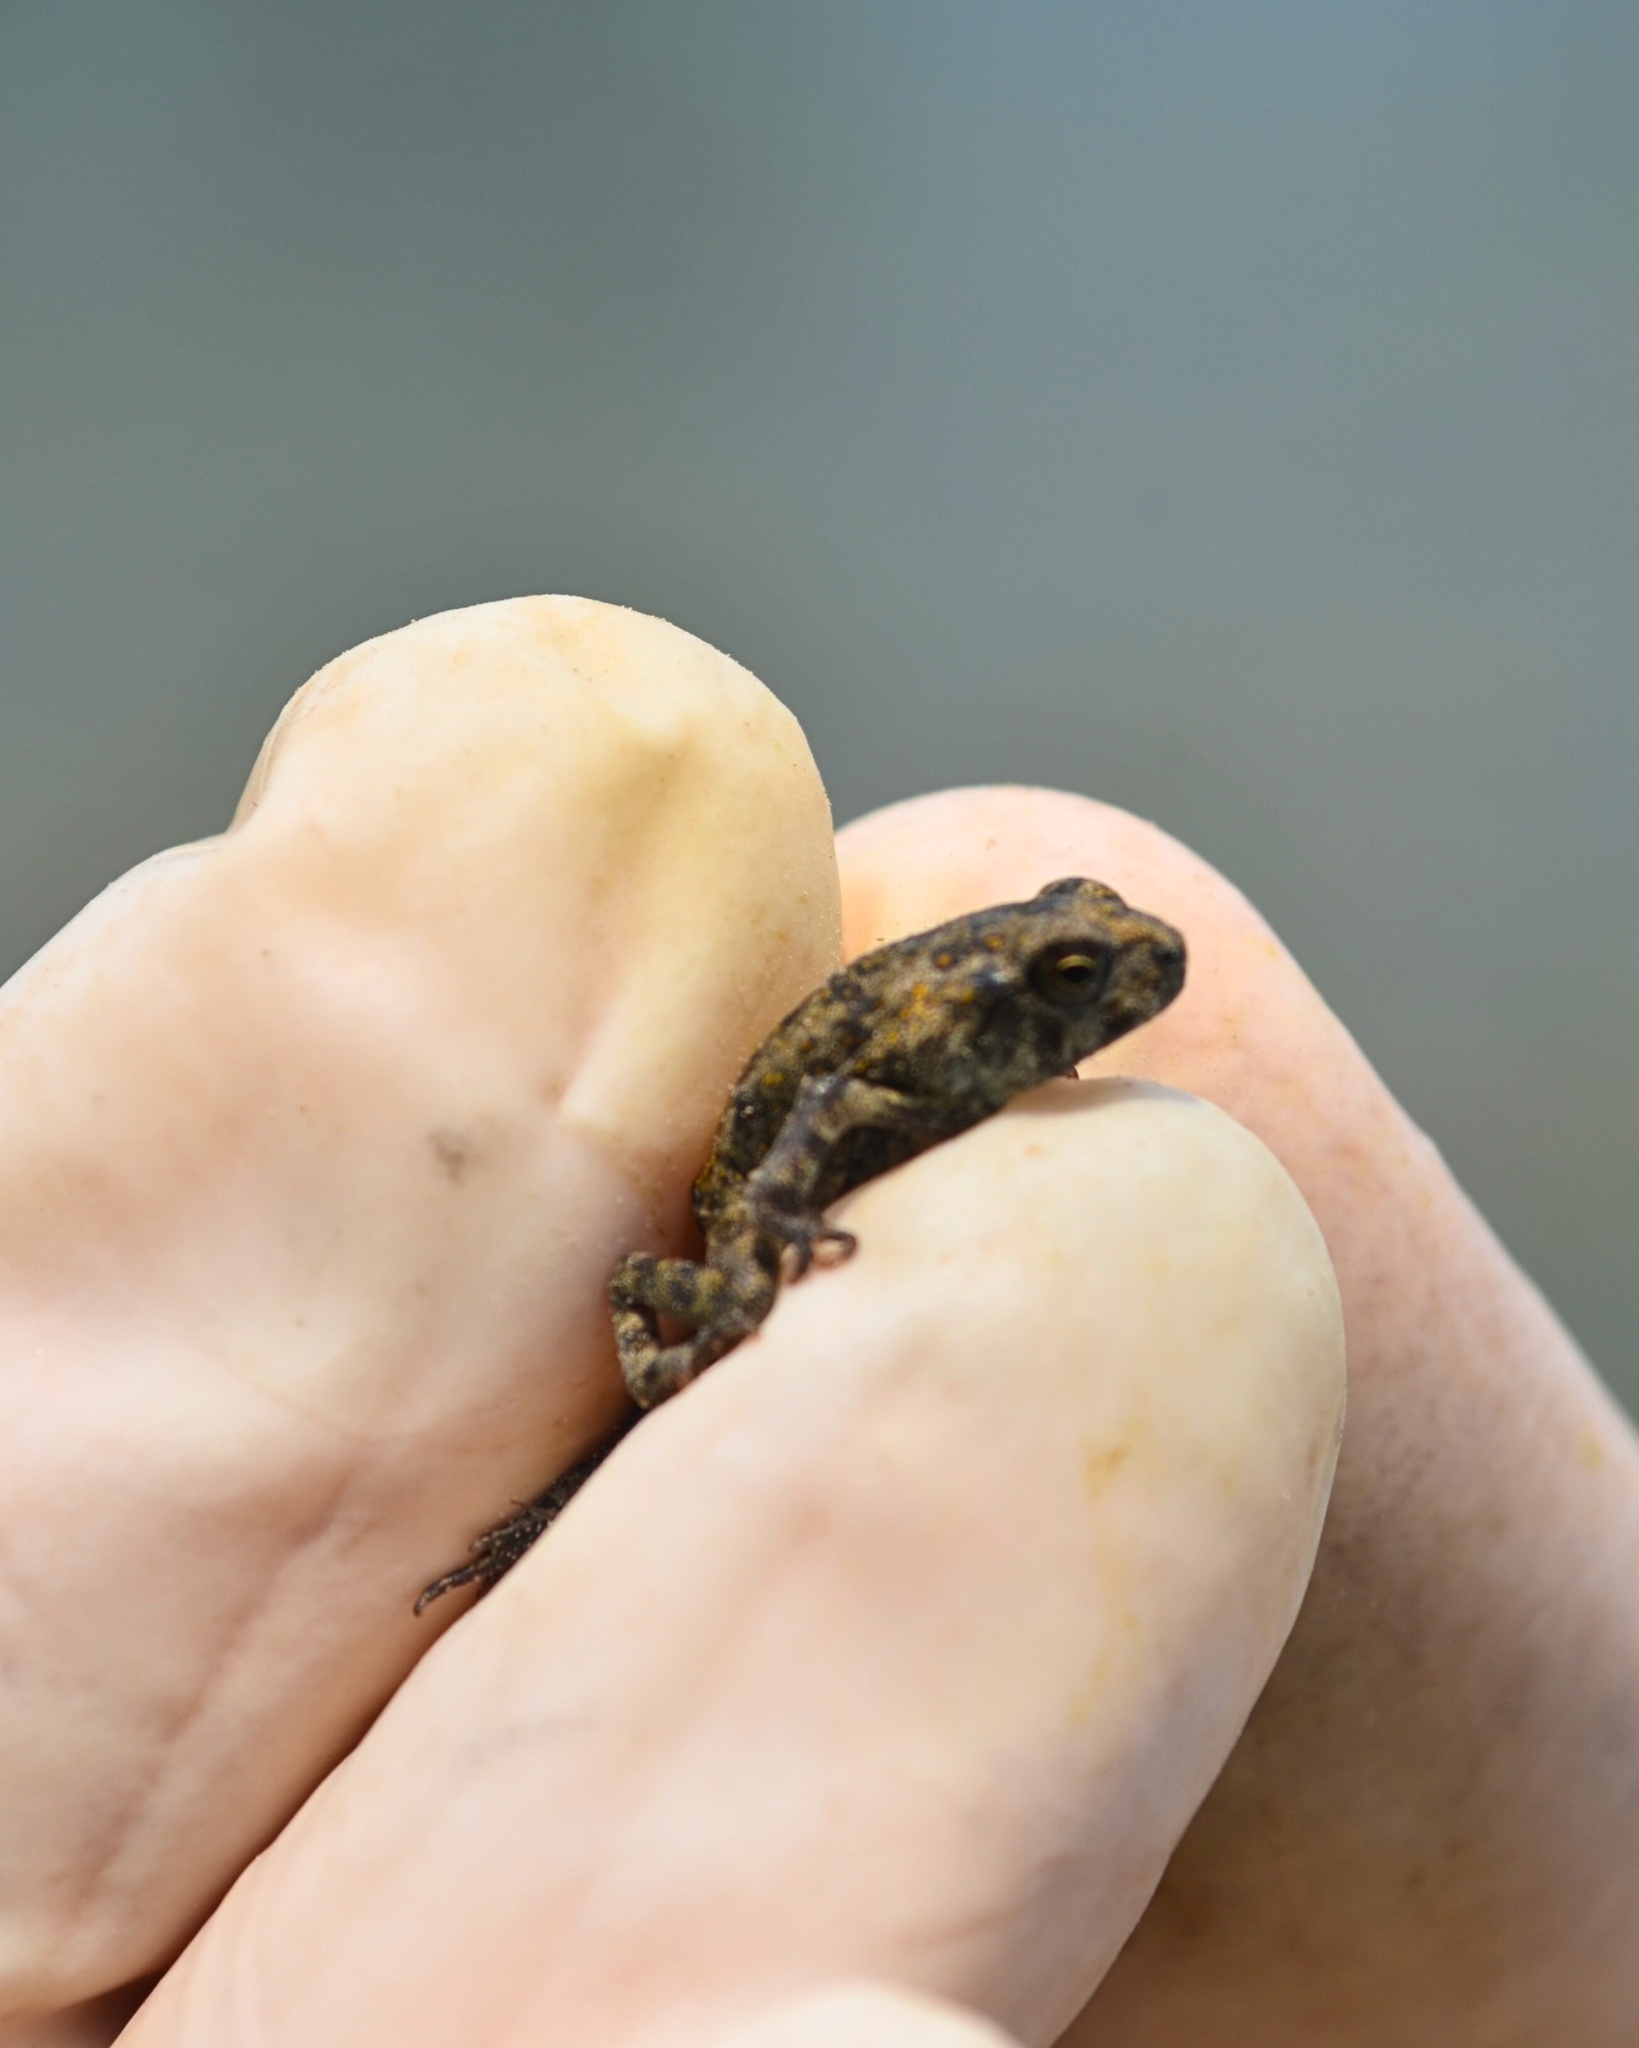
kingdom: Animalia
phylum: Chordata
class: Amphibia
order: Anura
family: Bufonidae
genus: Incilius
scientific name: Incilius nebulifer
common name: Gulf coast toad
